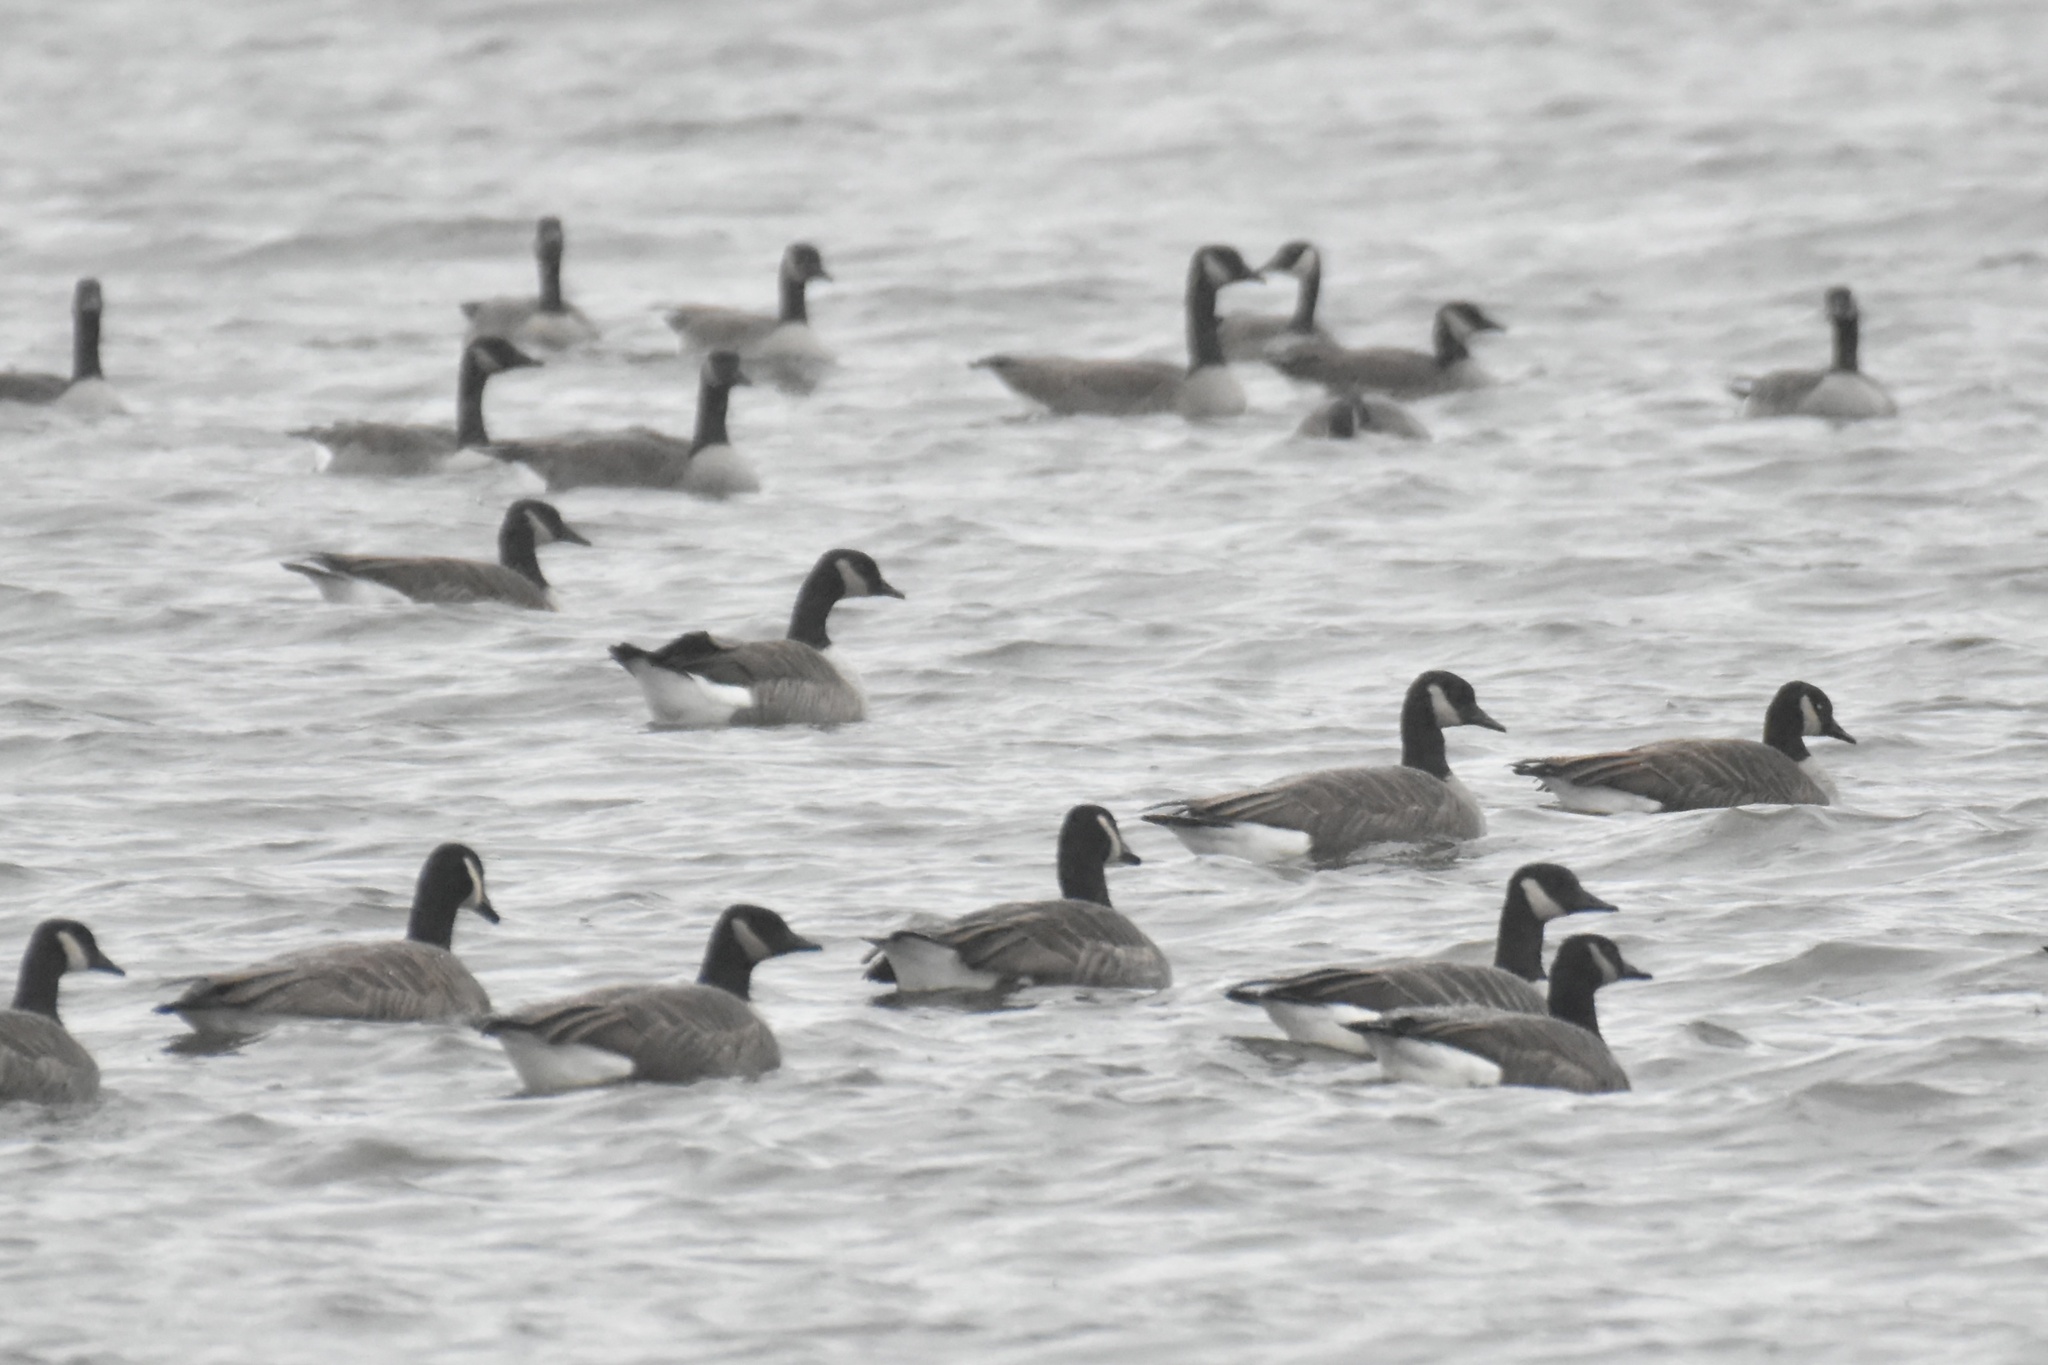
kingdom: Animalia
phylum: Chordata
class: Aves
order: Anseriformes
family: Anatidae
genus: Branta
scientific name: Branta canadensis
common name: Canada goose
